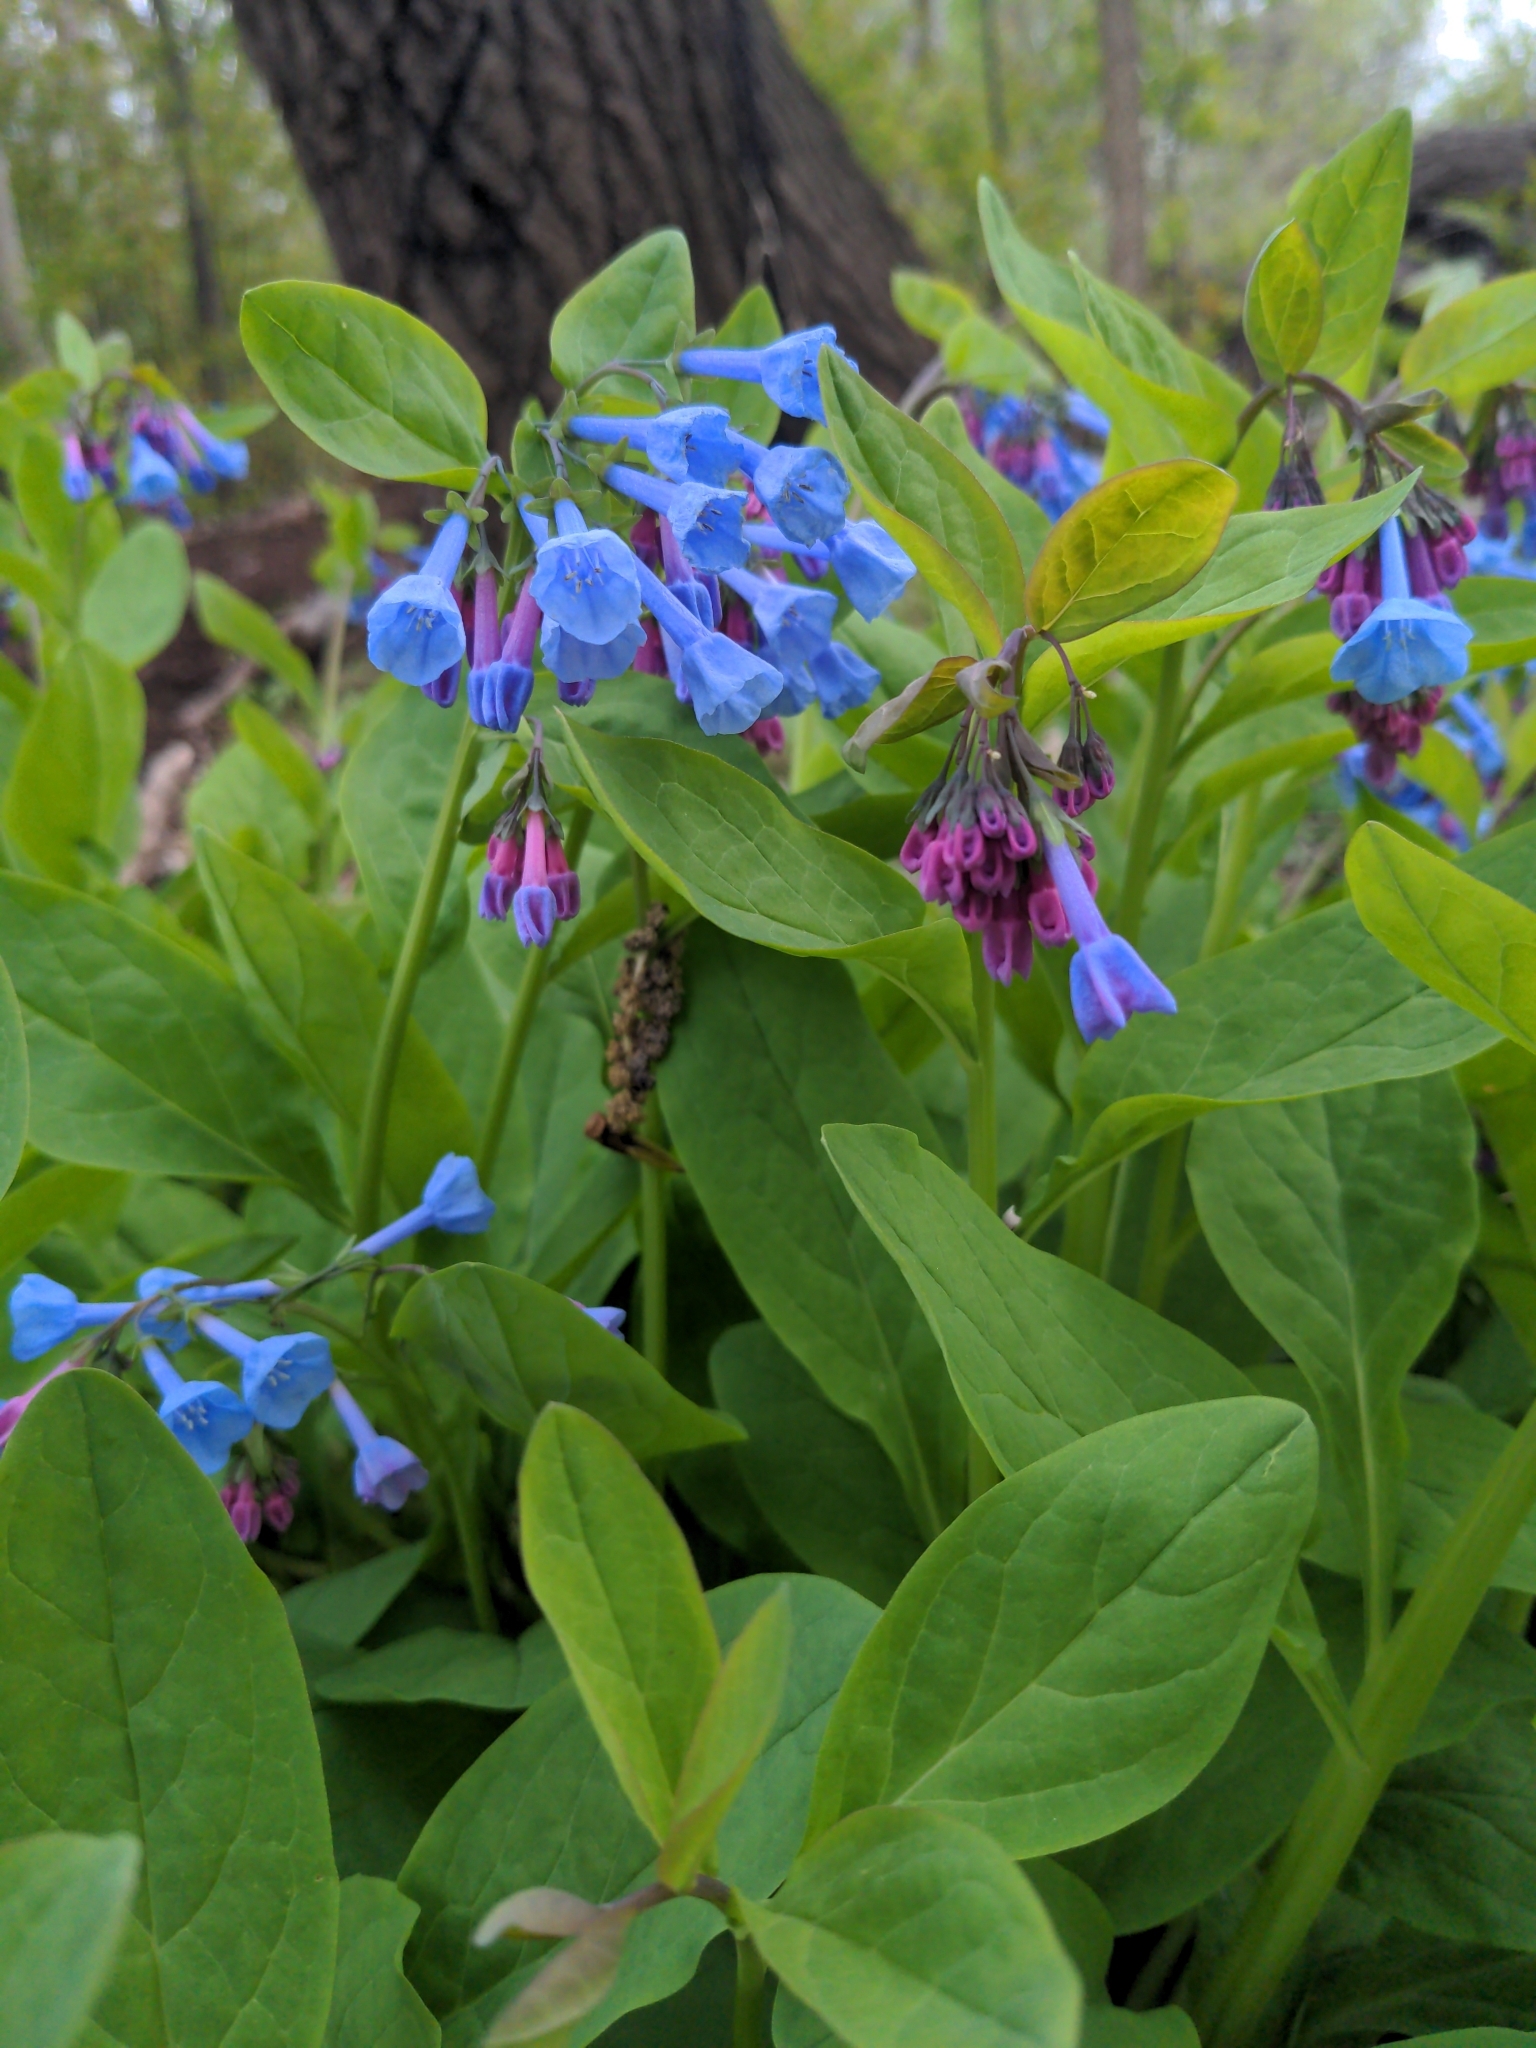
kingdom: Plantae
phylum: Tracheophyta
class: Magnoliopsida
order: Boraginales
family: Boraginaceae
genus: Mertensia
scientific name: Mertensia virginica
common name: Virginia bluebells
